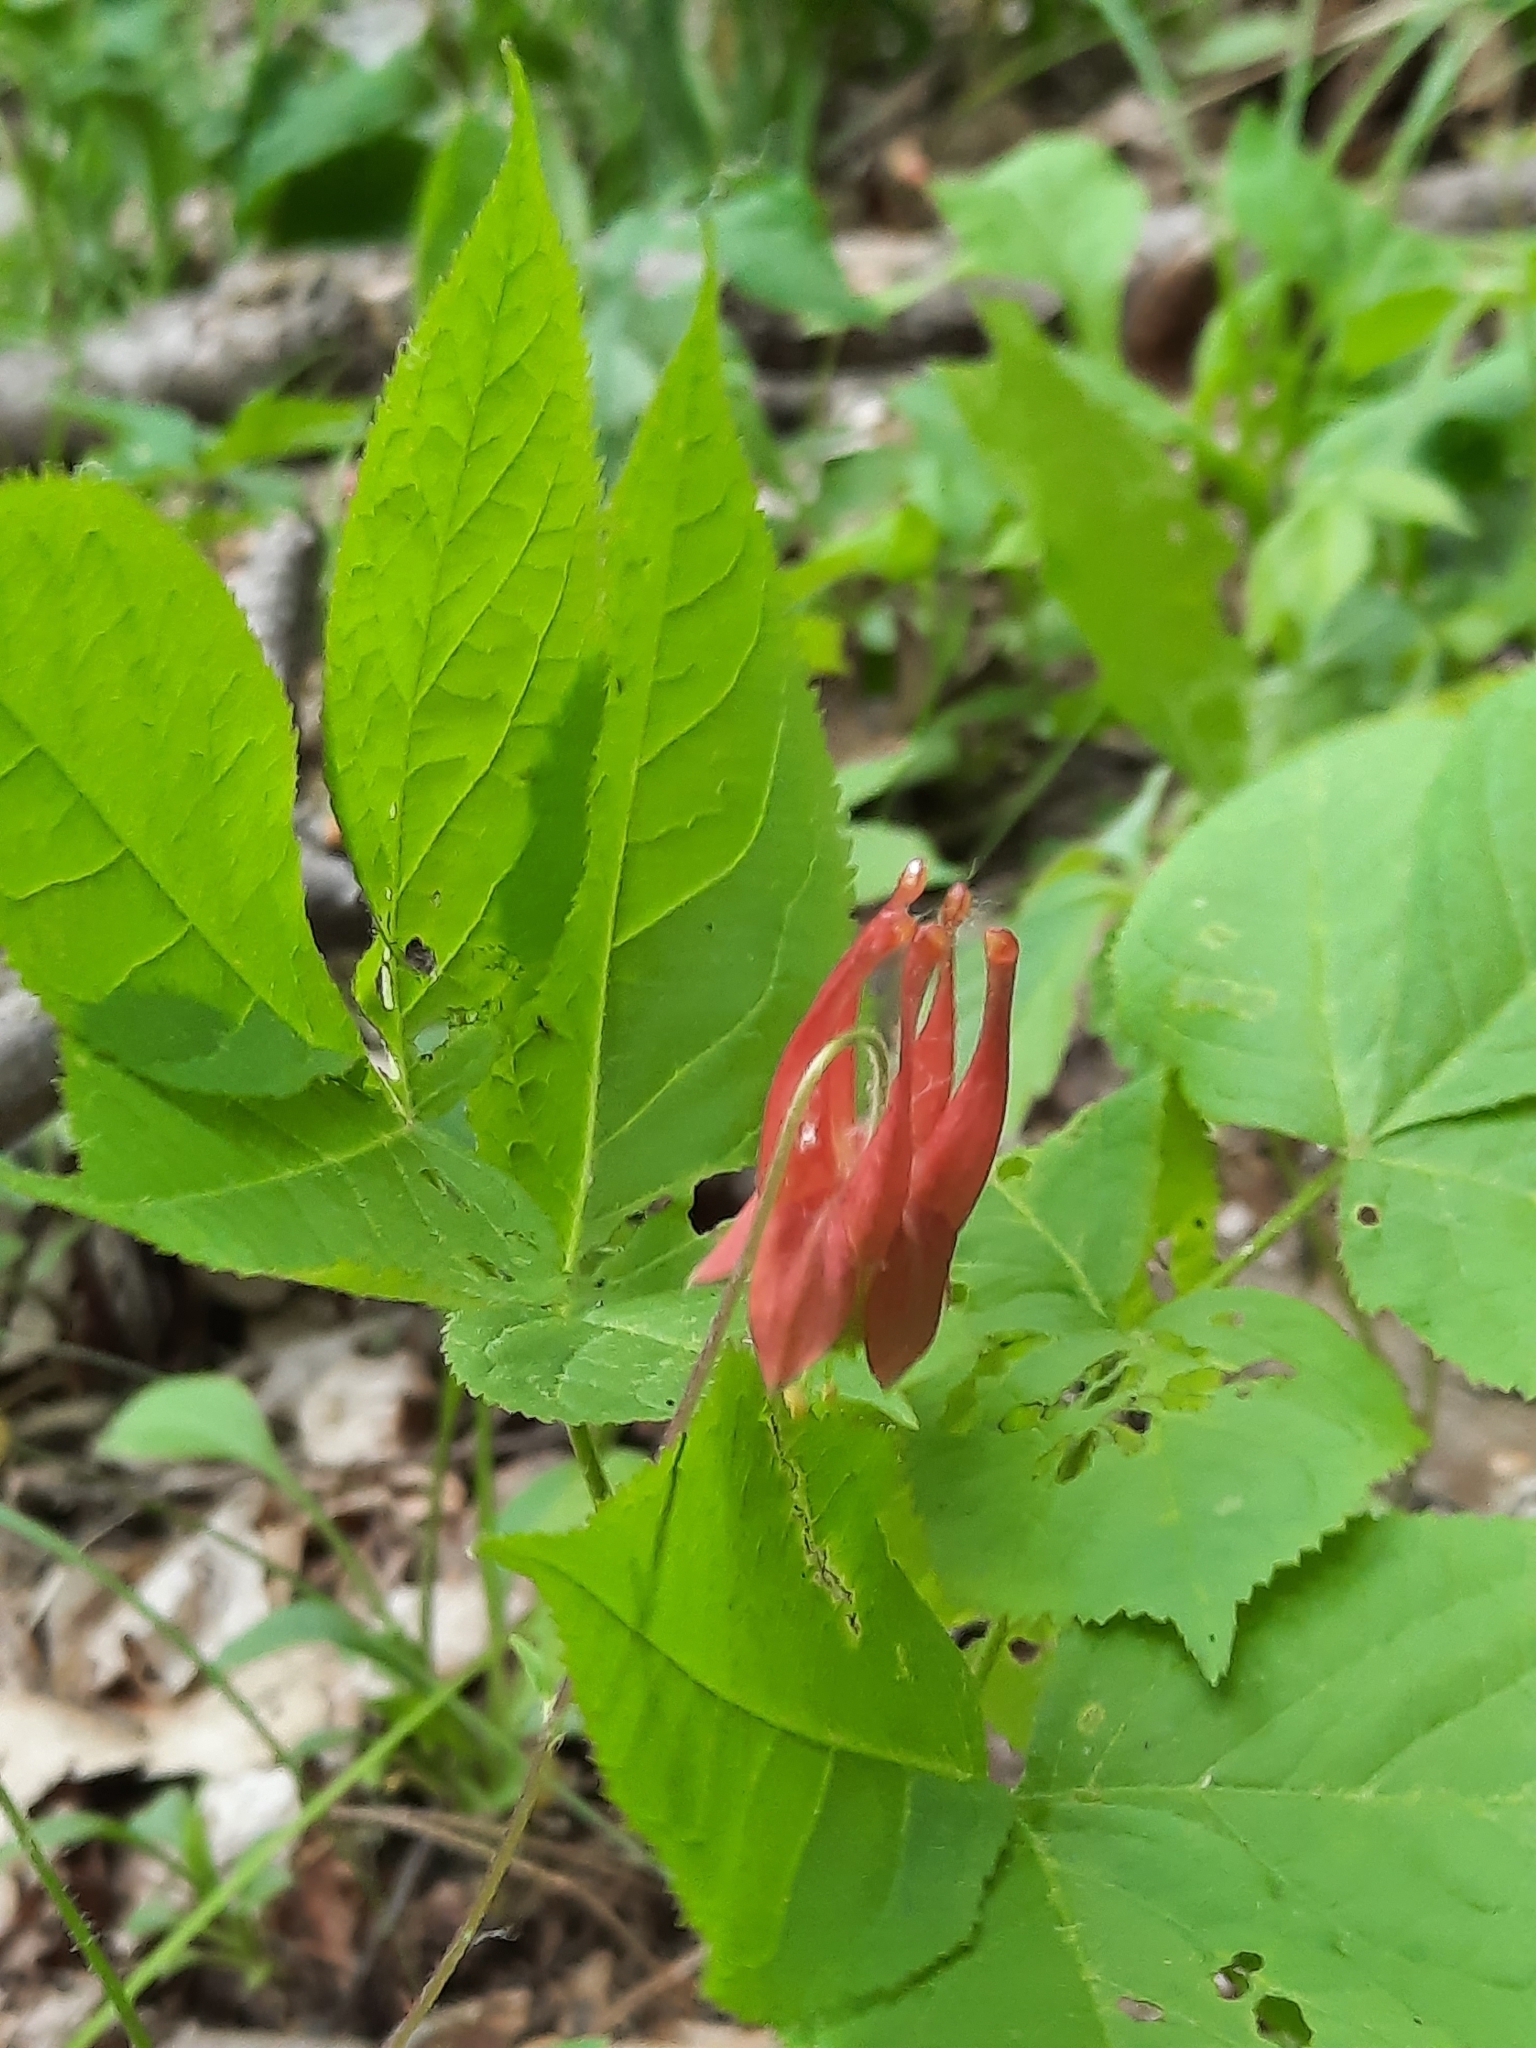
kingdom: Plantae
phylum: Tracheophyta
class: Magnoliopsida
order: Ranunculales
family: Ranunculaceae
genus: Aquilegia
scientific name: Aquilegia canadensis
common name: American columbine
